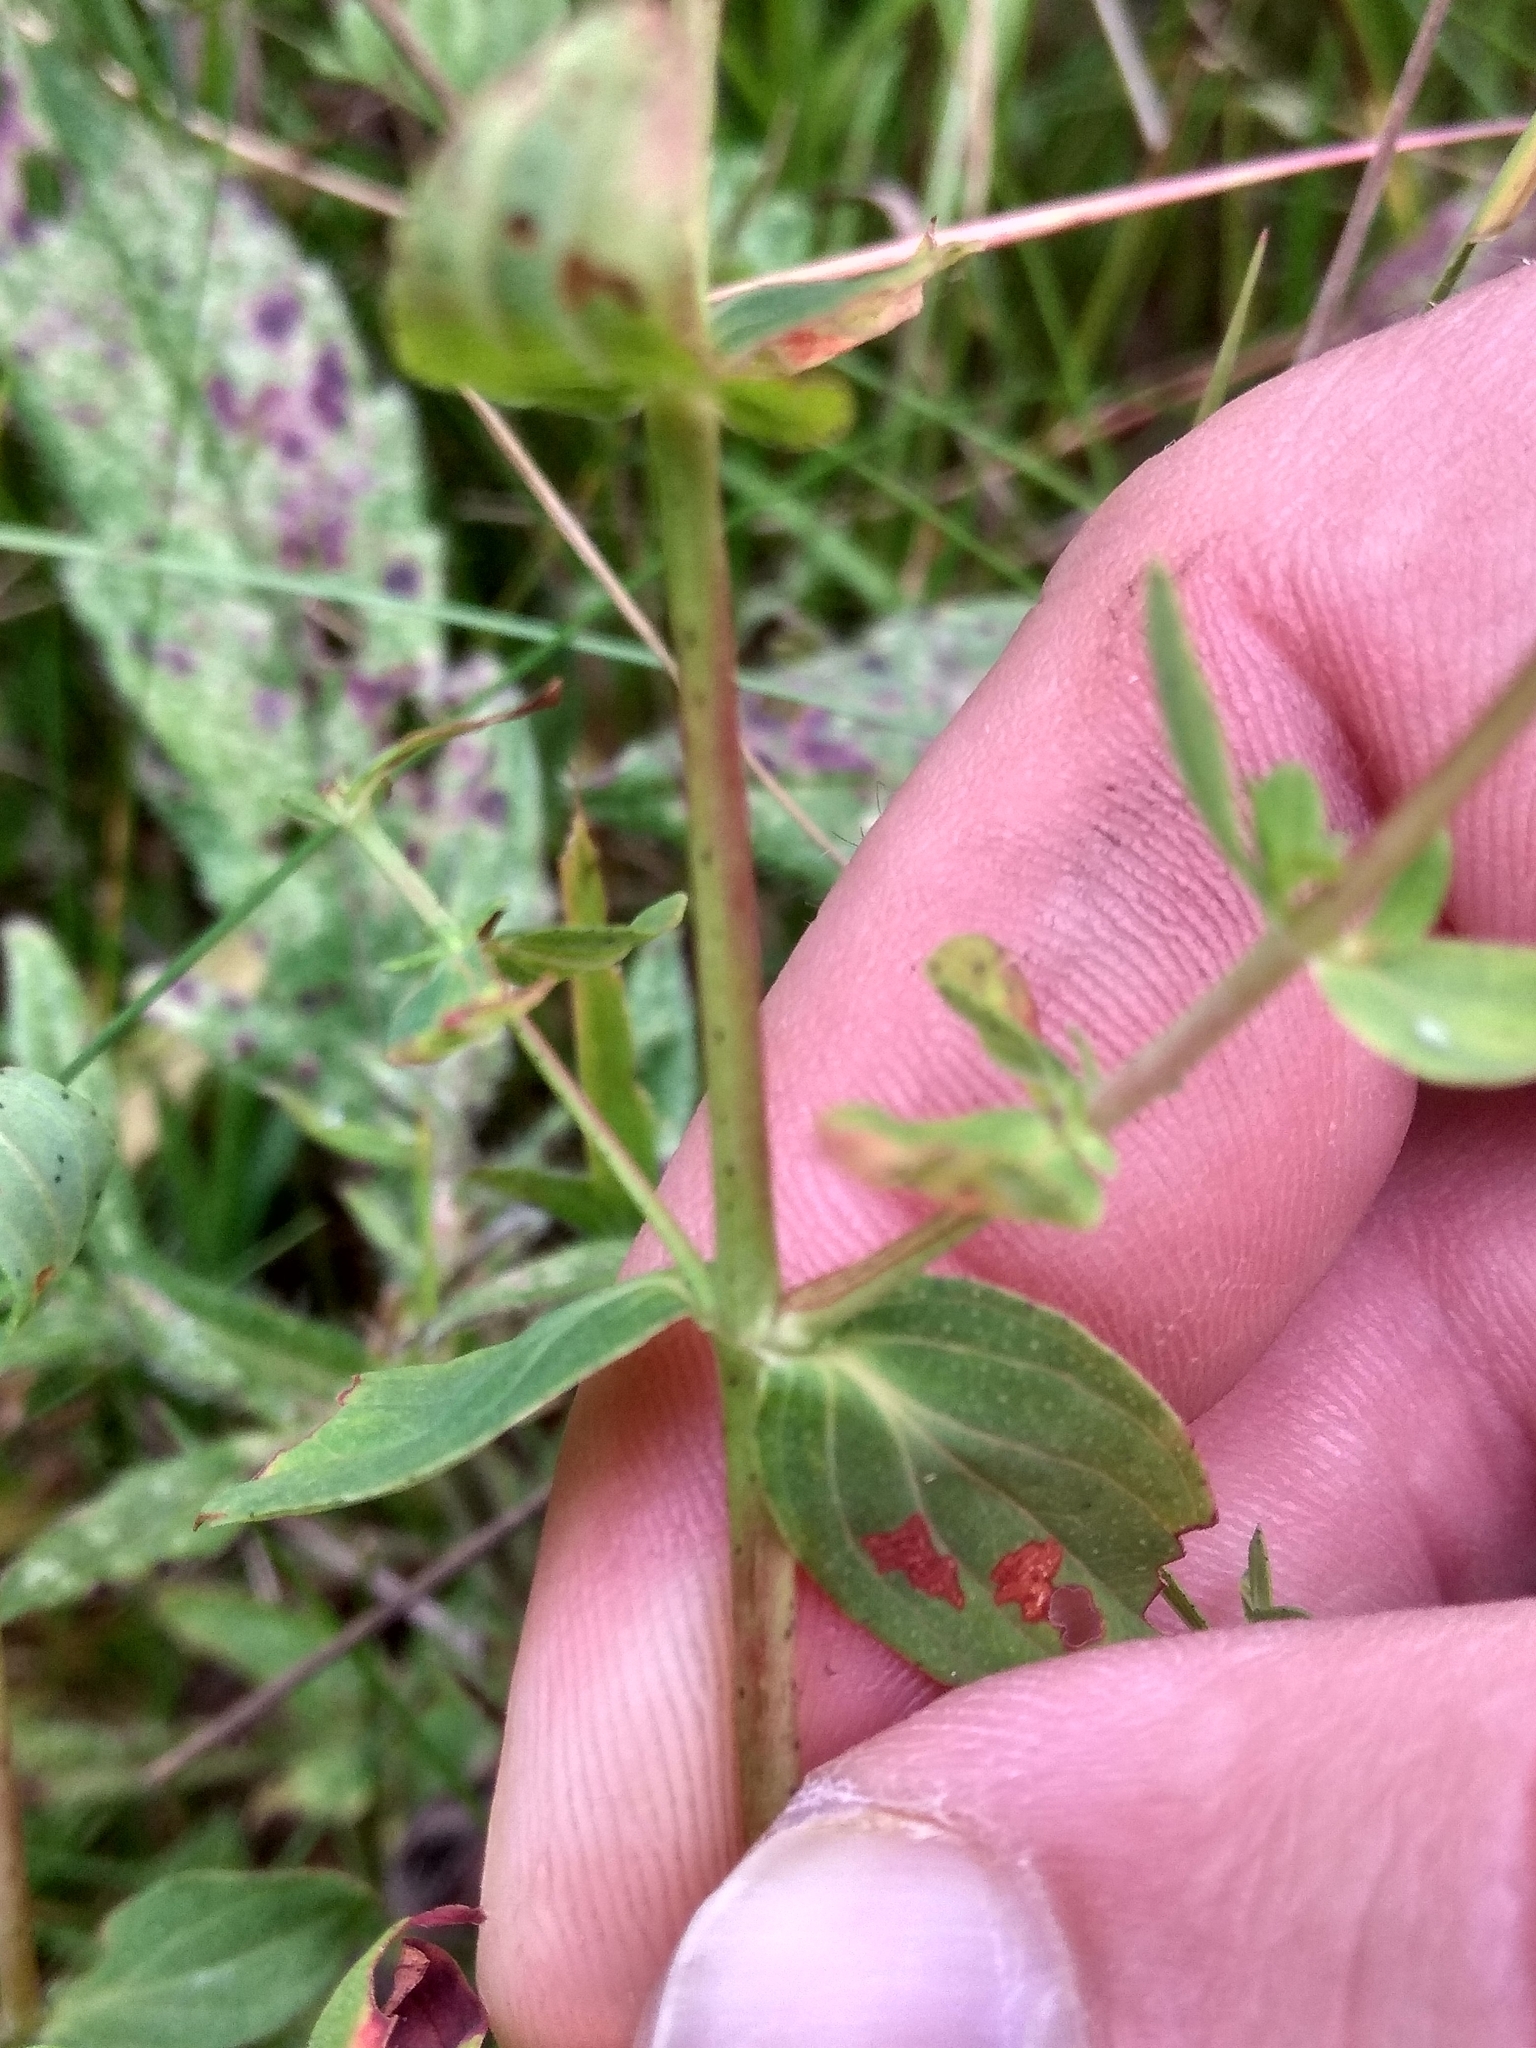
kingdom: Plantae
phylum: Tracheophyta
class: Magnoliopsida
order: Malpighiales
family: Hypericaceae
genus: Hypericum
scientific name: Hypericum perforatum
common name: Common st. johnswort
